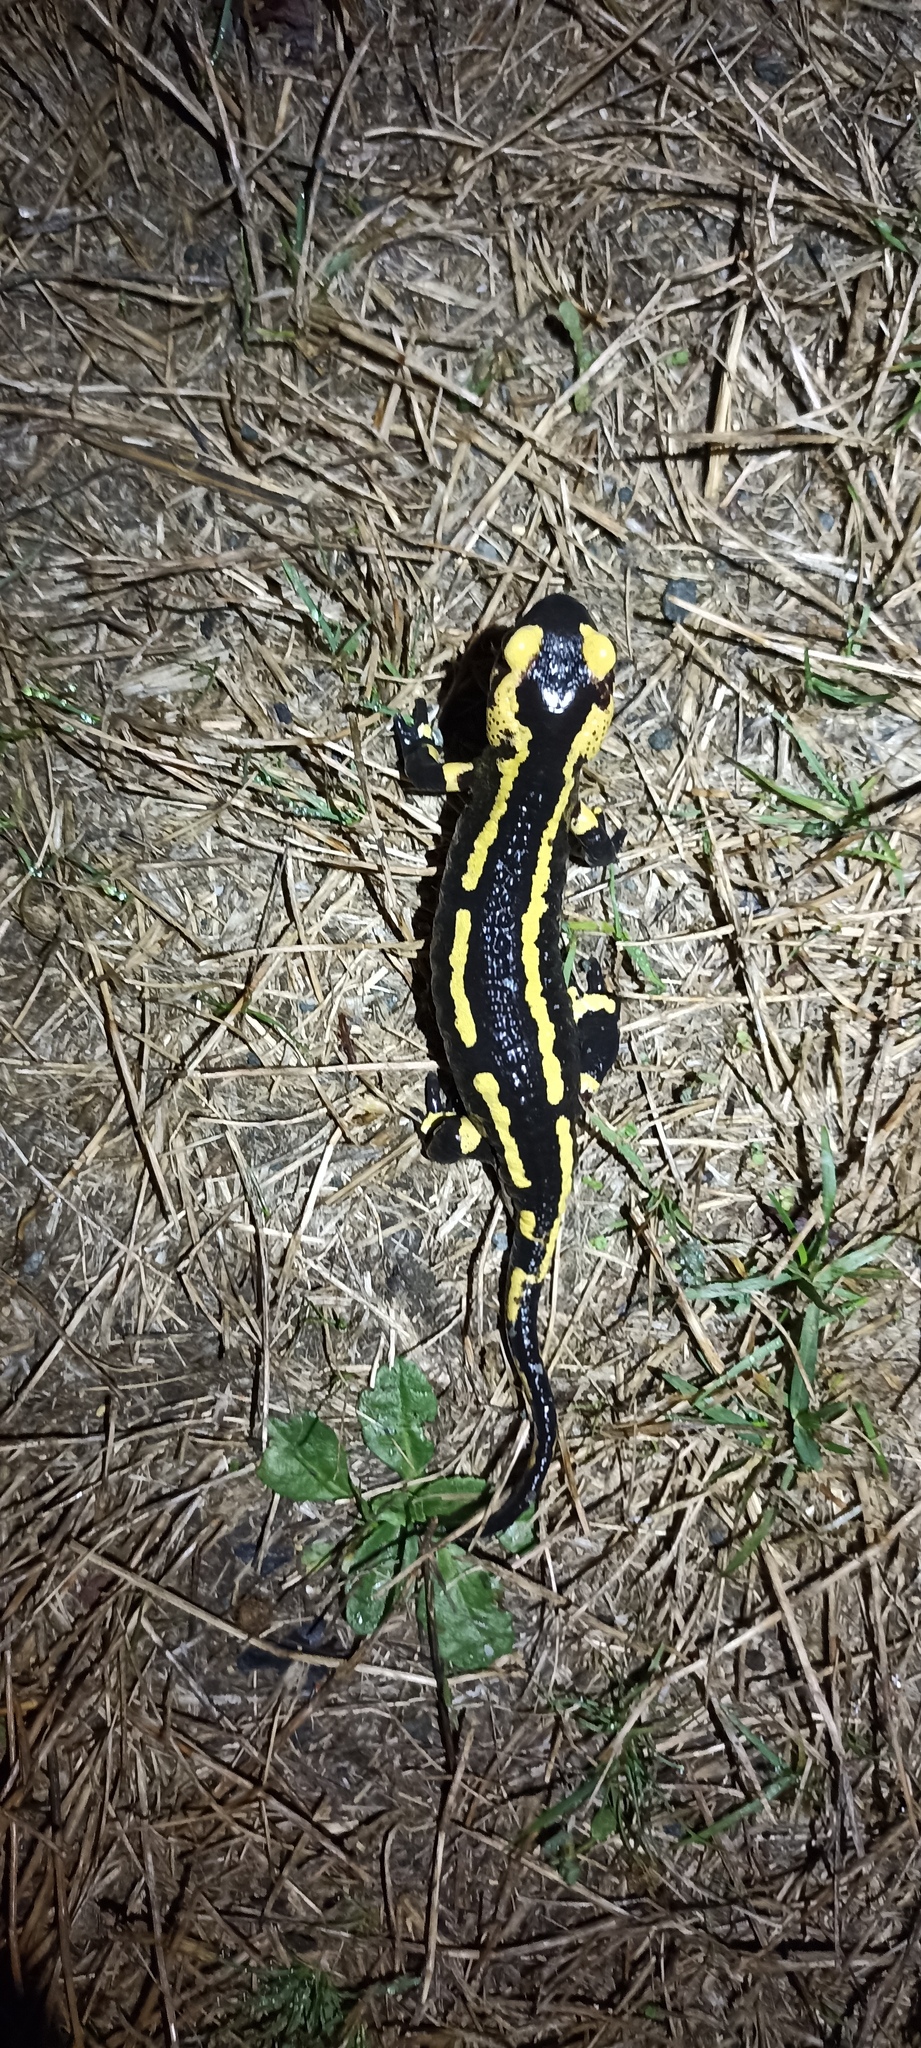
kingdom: Animalia
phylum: Chordata
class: Amphibia
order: Caudata
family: Salamandridae
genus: Salamandra
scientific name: Salamandra salamandra
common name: Fire salamander
